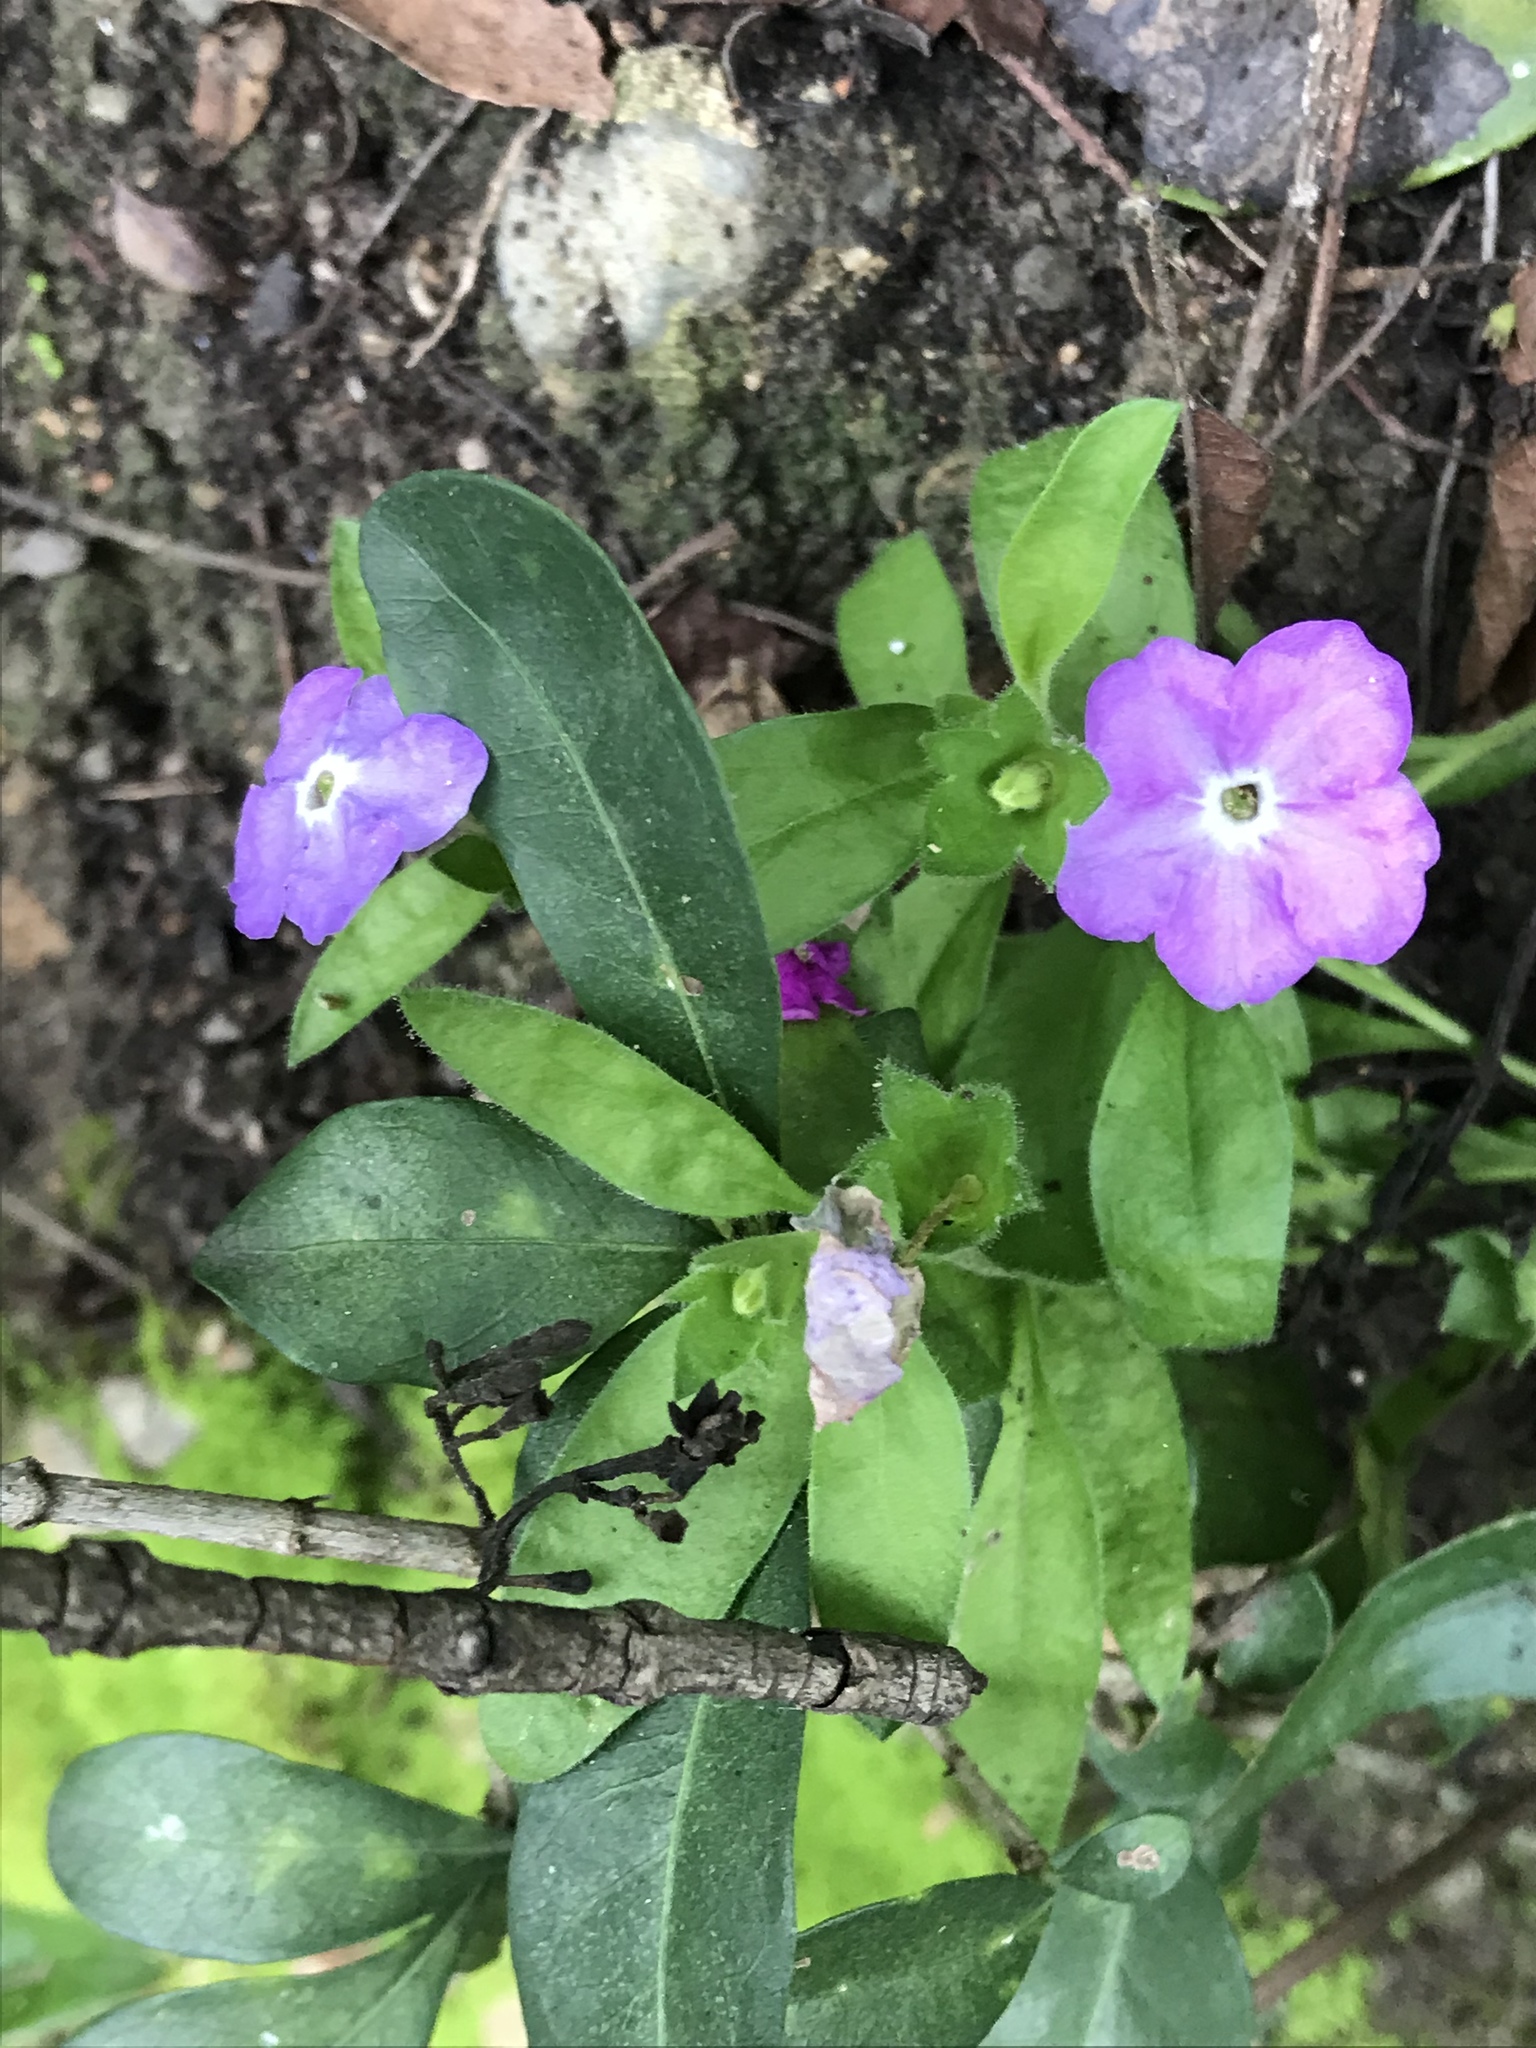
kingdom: Plantae
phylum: Tracheophyta
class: Magnoliopsida
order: Solanales
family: Solanaceae
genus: Hunzikeria
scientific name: Hunzikeria texana
